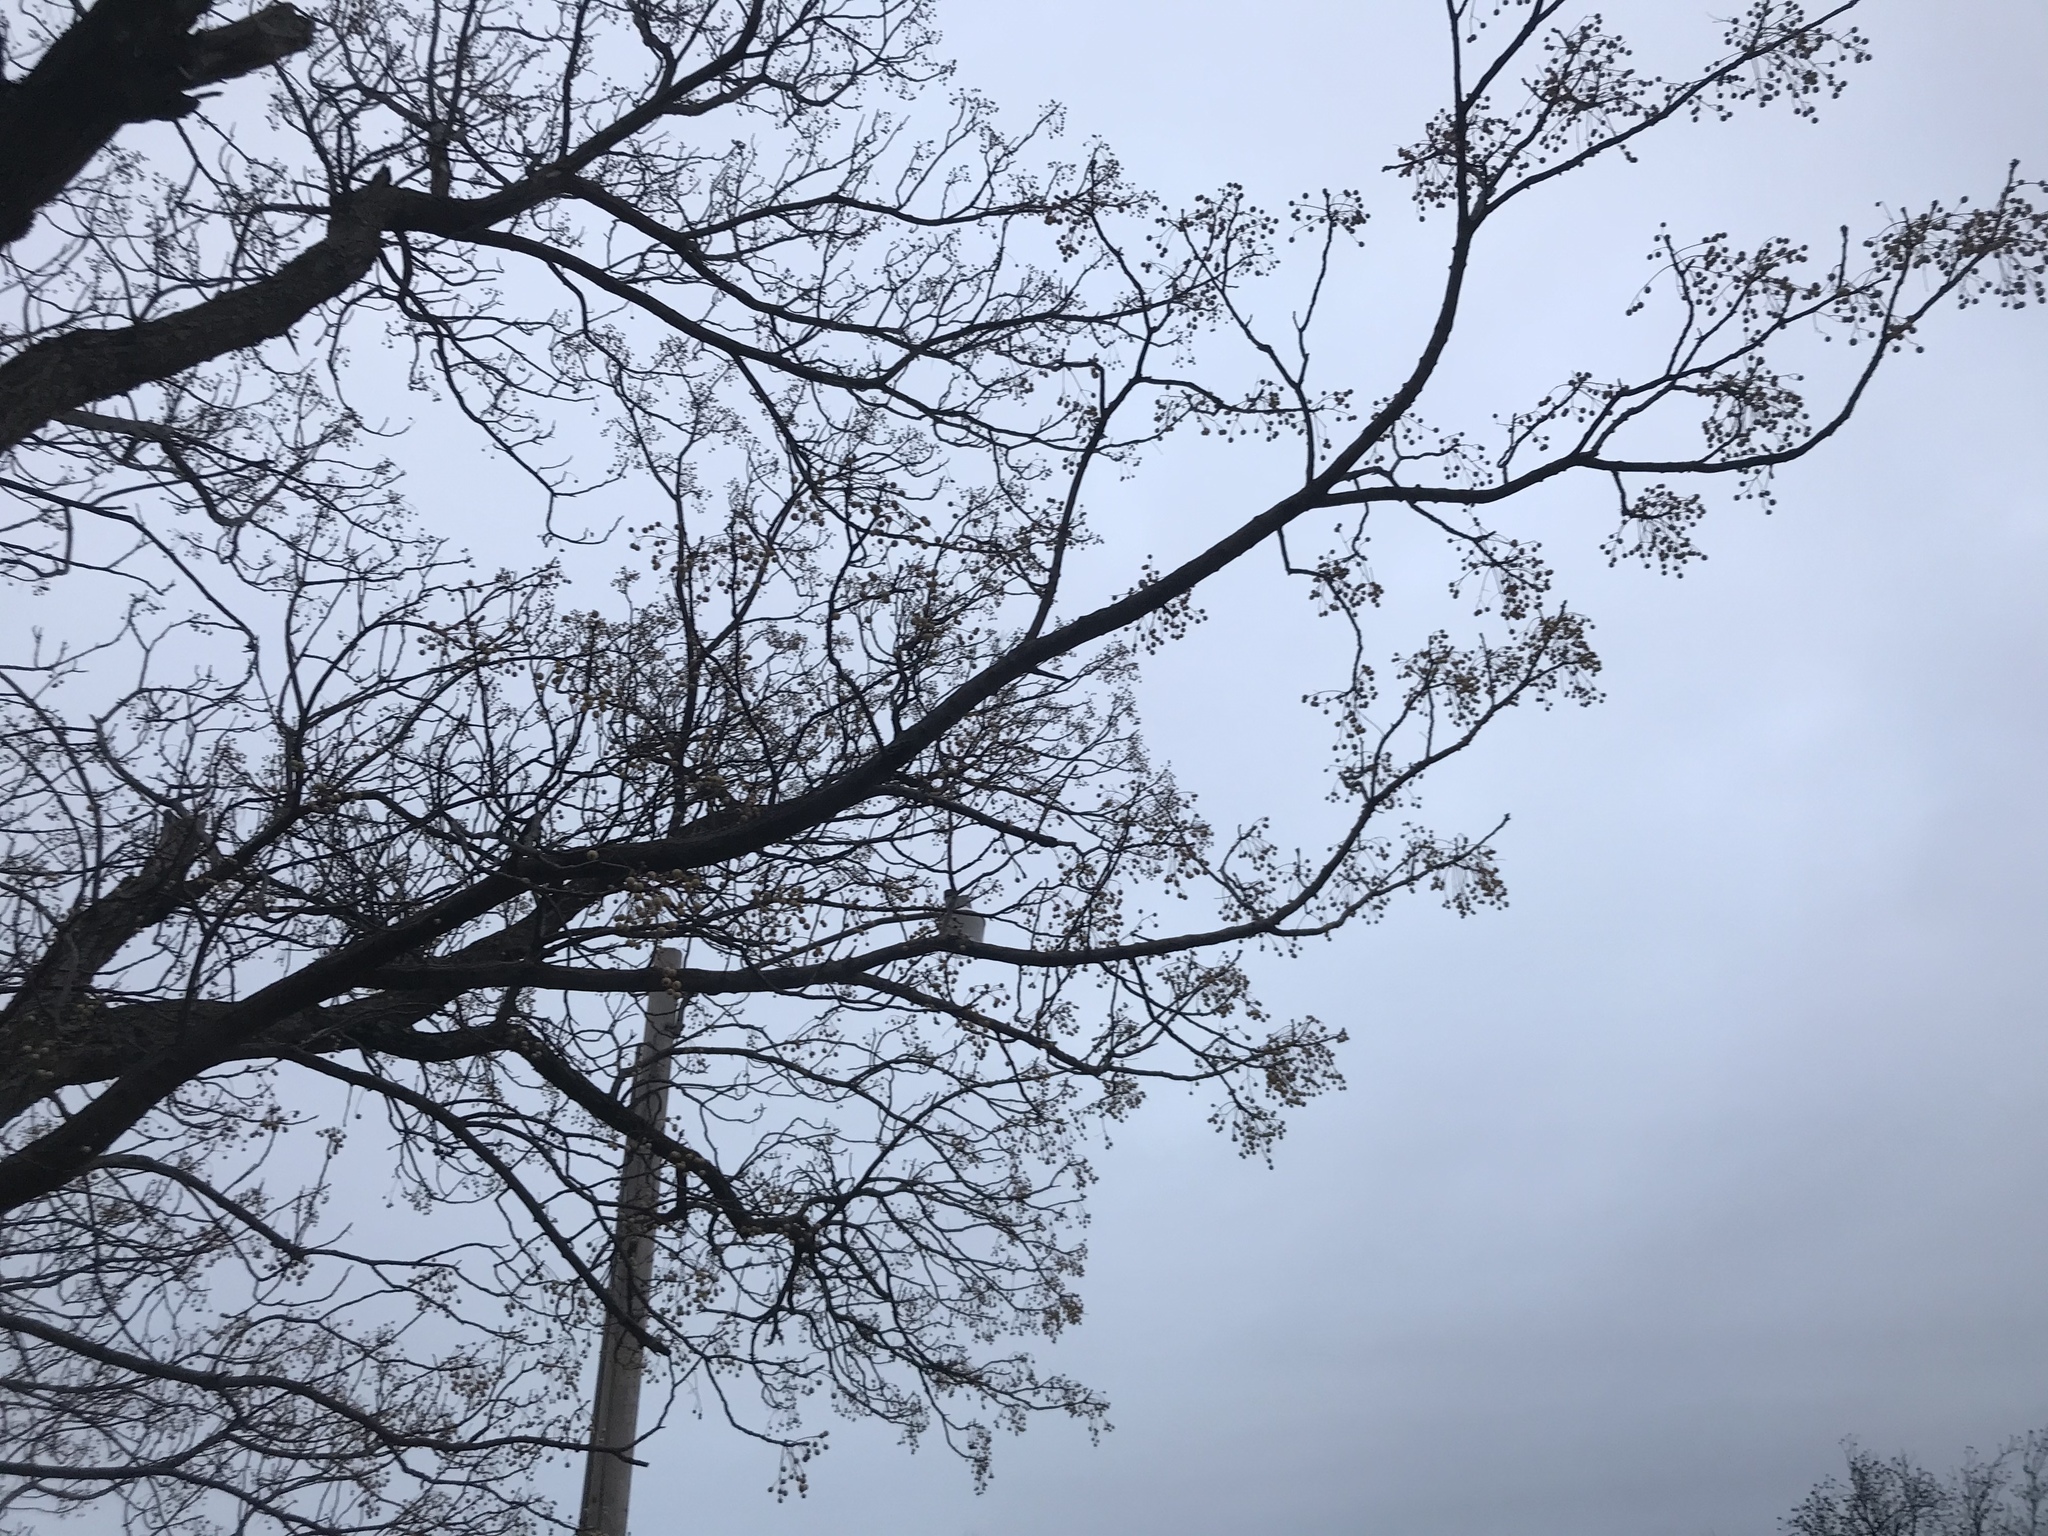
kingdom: Plantae
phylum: Tracheophyta
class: Magnoliopsida
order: Sapindales
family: Meliaceae
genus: Melia
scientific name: Melia azedarach
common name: Chinaberrytree
